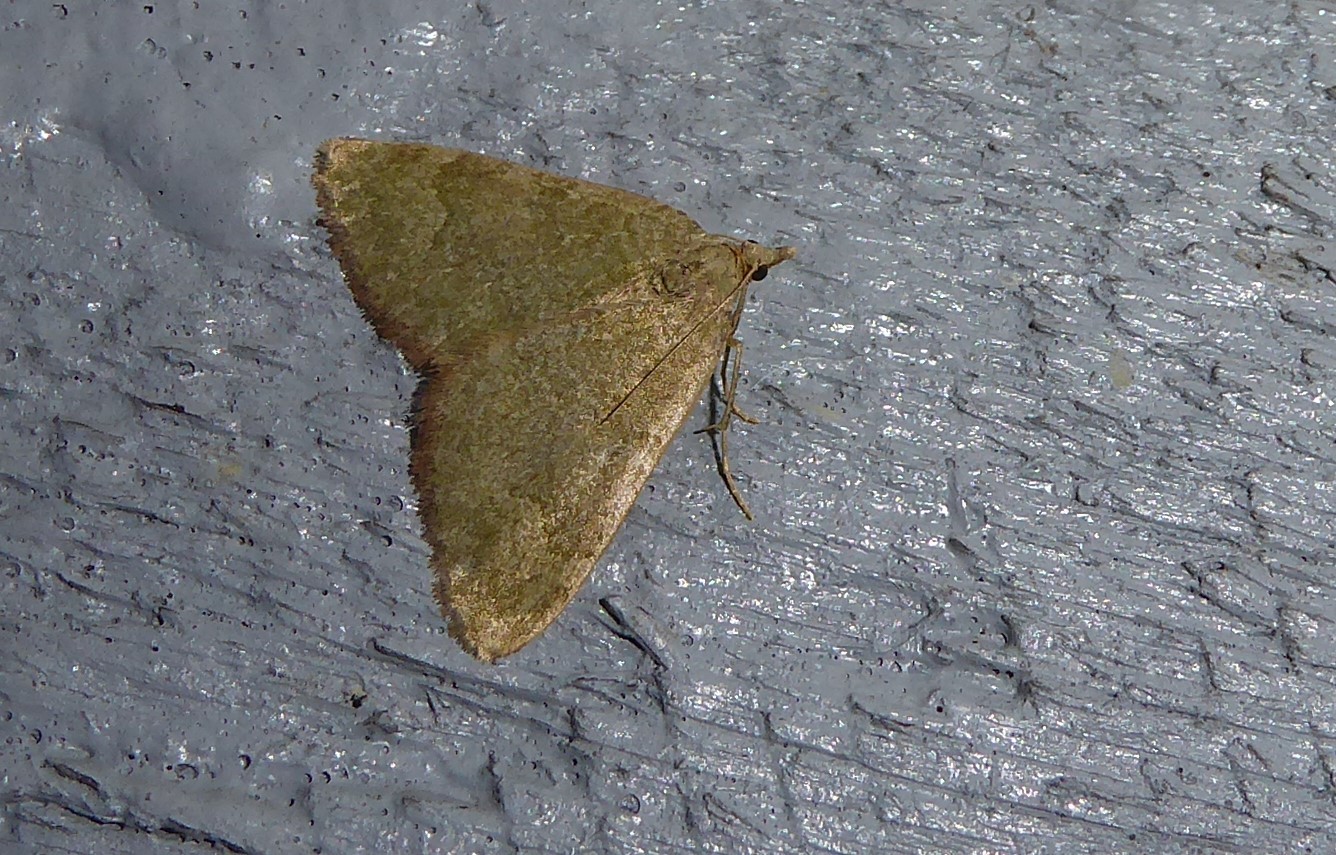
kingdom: Animalia
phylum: Arthropoda
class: Insecta
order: Lepidoptera
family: Geometridae
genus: Epyaxa
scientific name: Epyaxa rosearia
